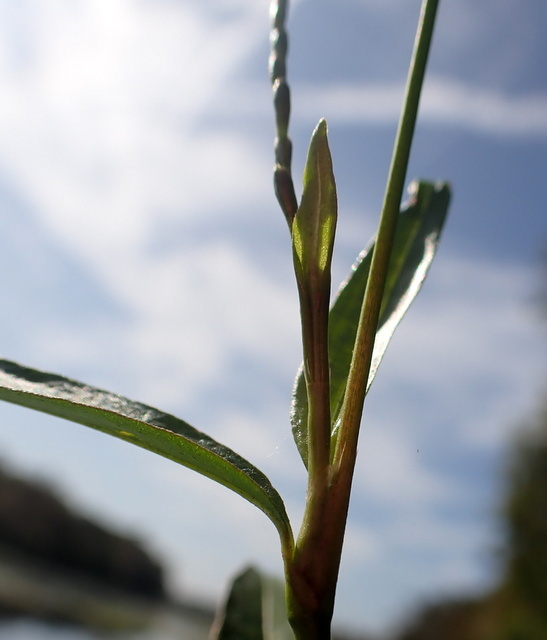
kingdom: Plantae
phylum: Tracheophyta
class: Magnoliopsida
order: Caryophyllales
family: Polygonaceae
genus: Persicaria
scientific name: Persicaria punctata
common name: Dotted smartweed
